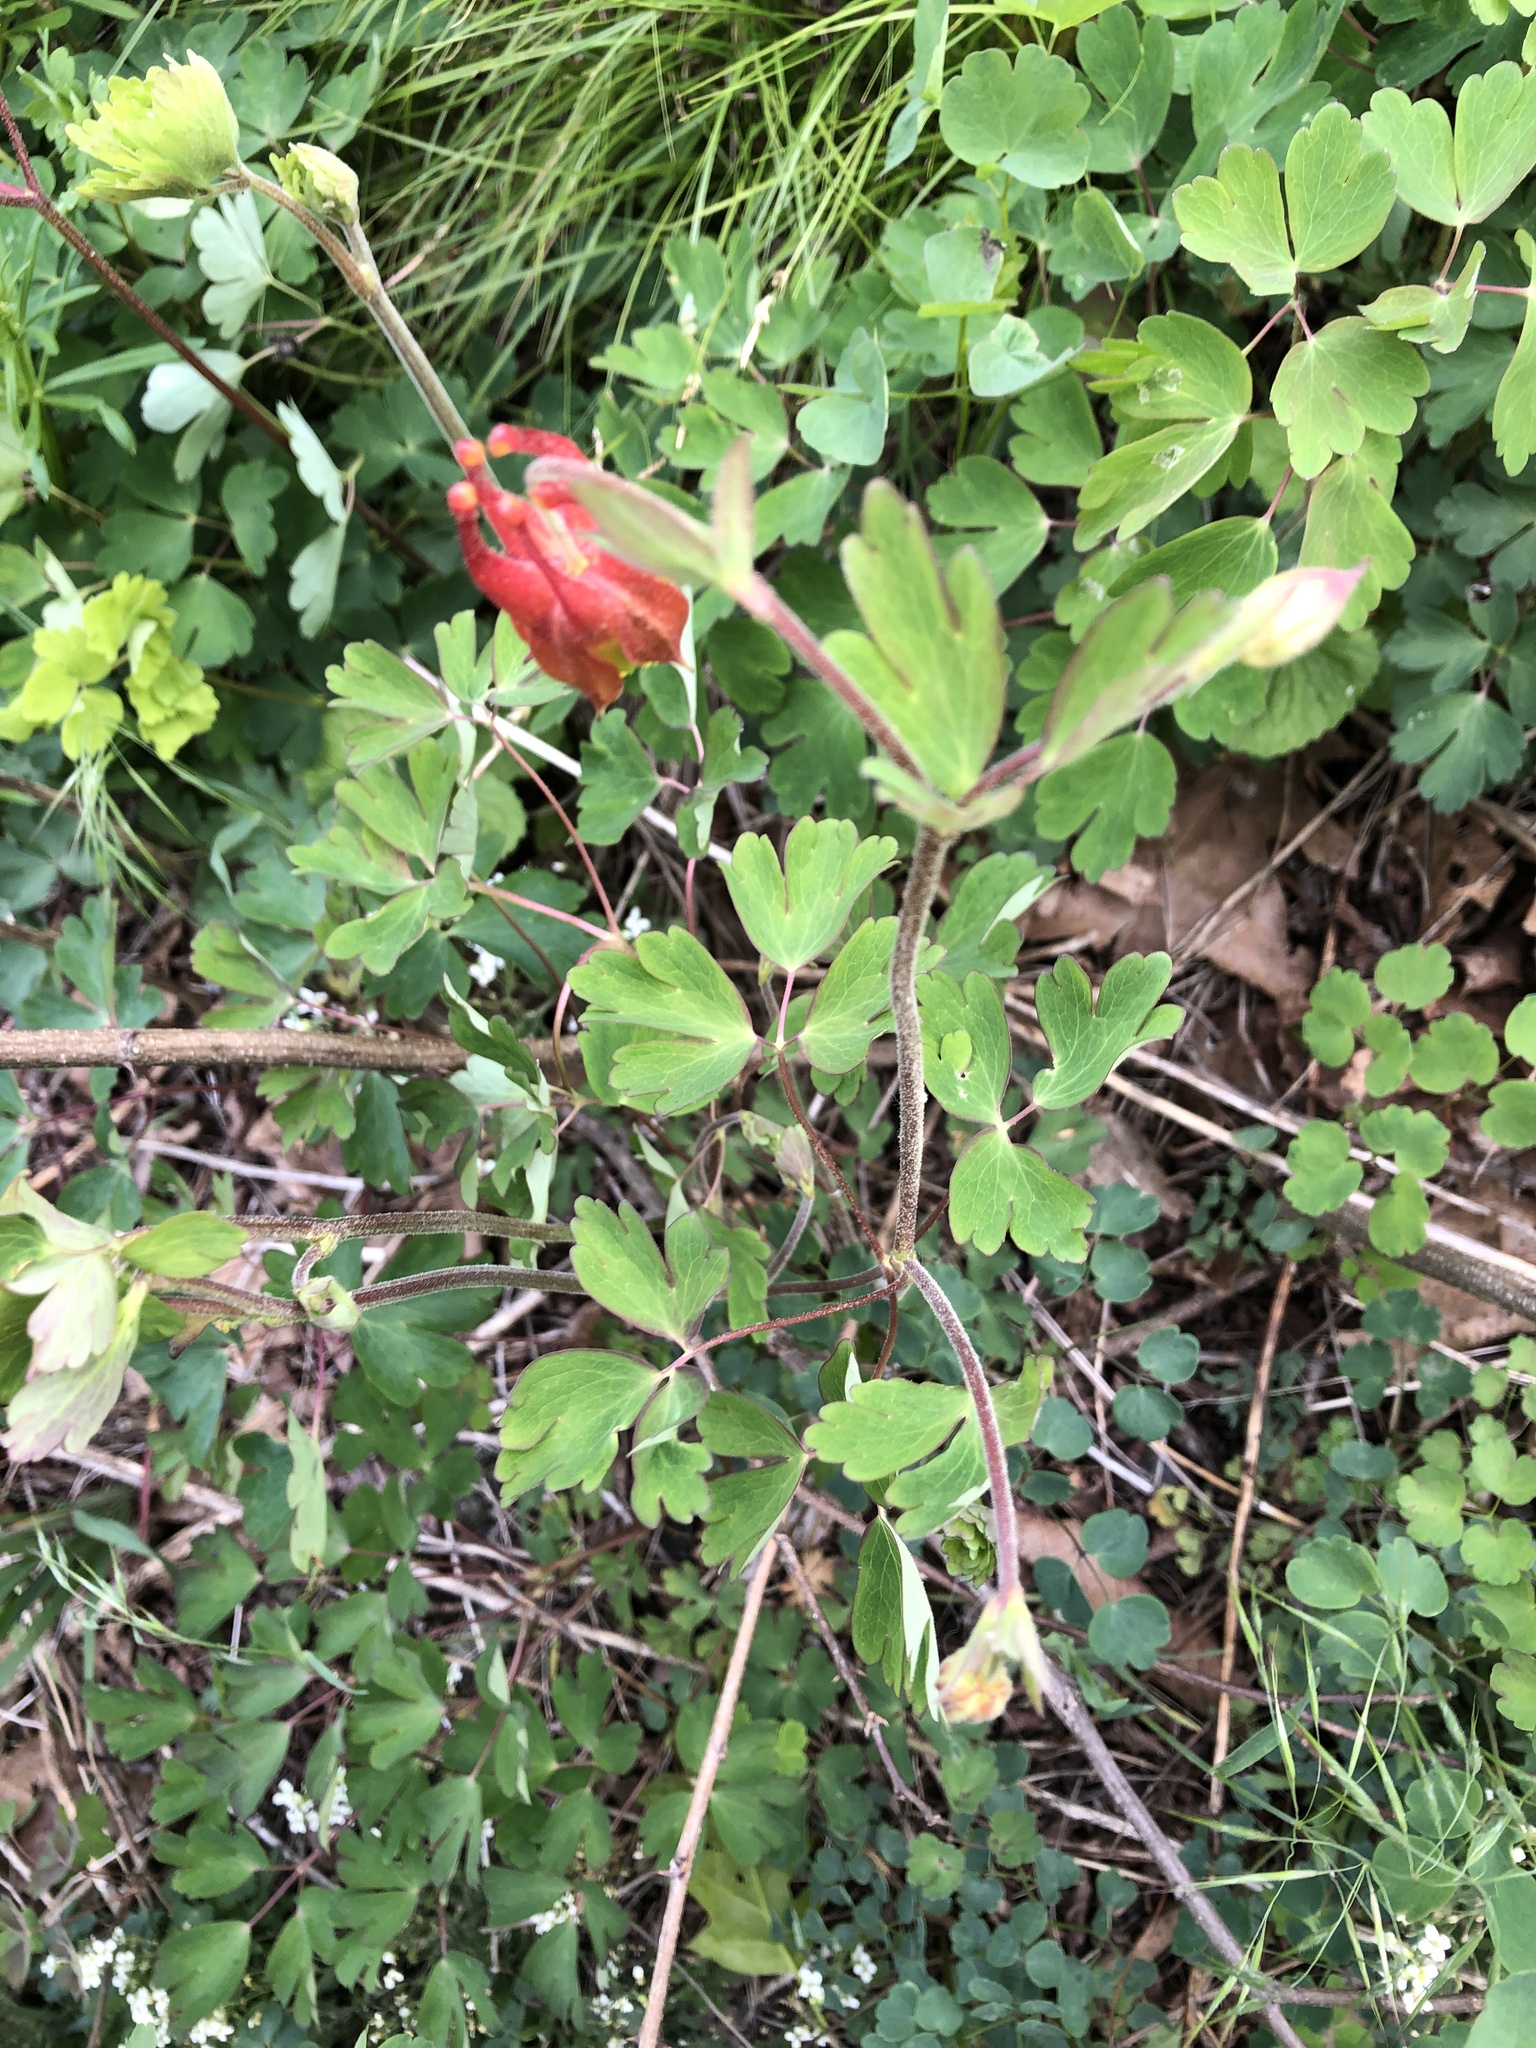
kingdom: Plantae
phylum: Tracheophyta
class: Magnoliopsida
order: Ranunculales
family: Ranunculaceae
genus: Aquilegia
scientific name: Aquilegia canadensis
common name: American columbine
